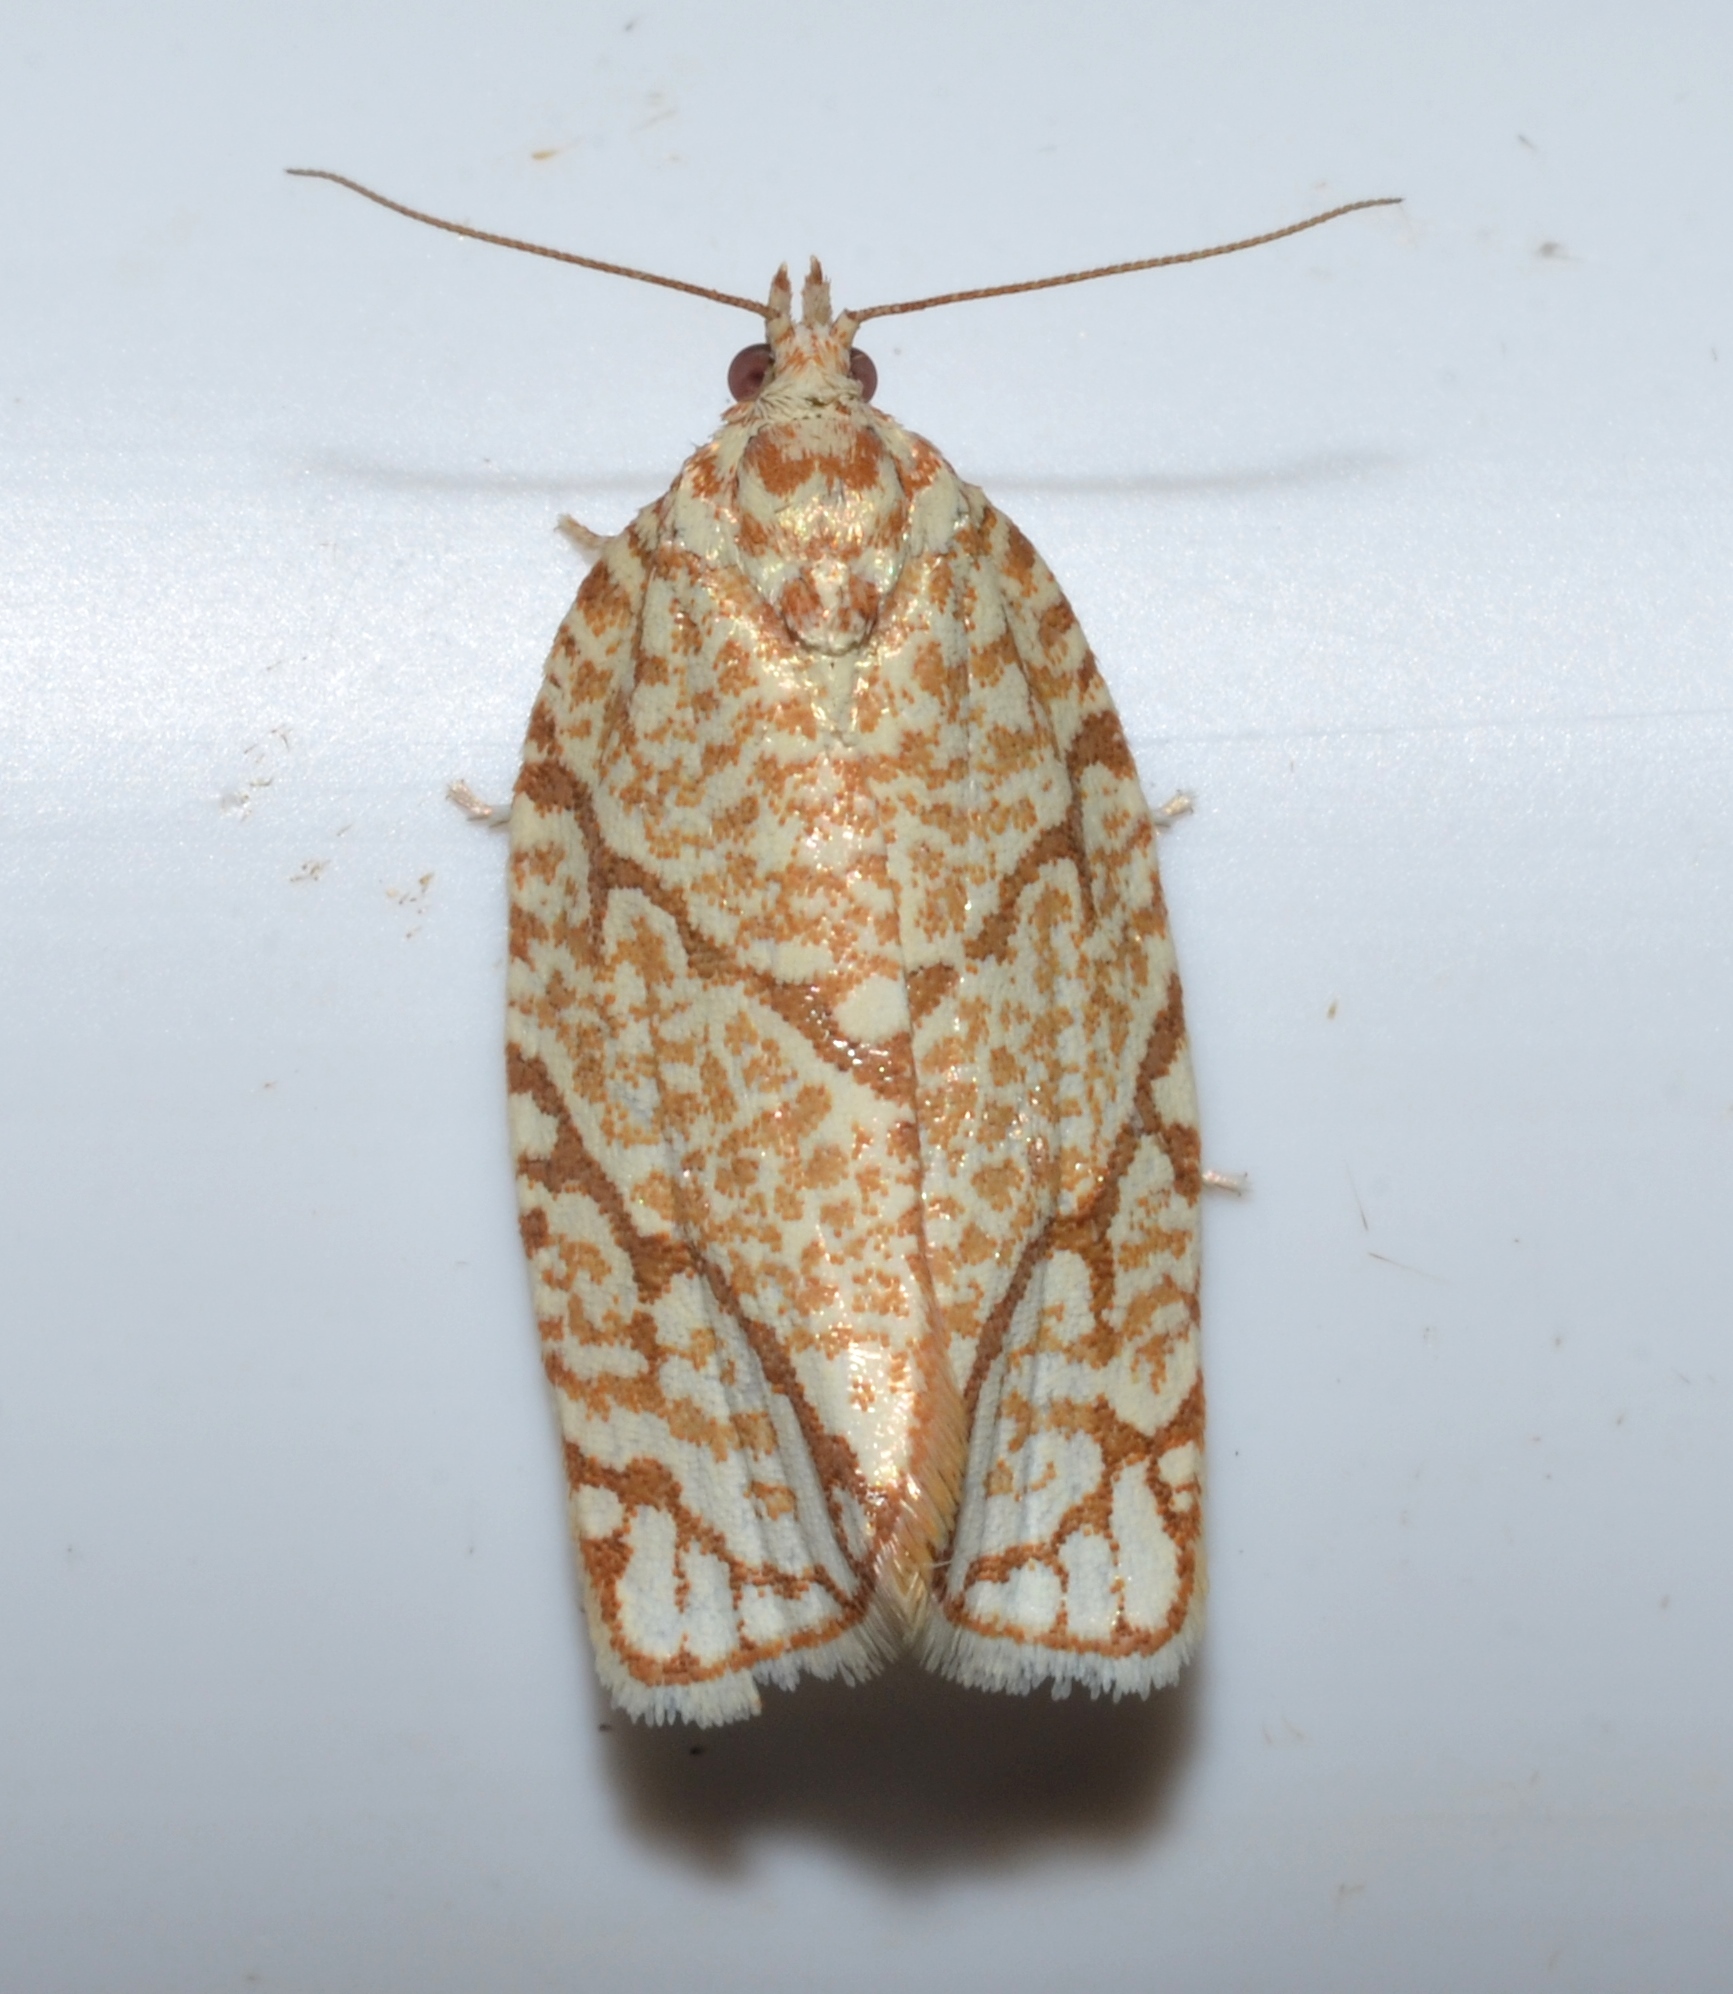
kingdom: Animalia
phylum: Arthropoda
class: Insecta
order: Lepidoptera
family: Tortricidae
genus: Argyrotaenia
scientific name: Argyrotaenia quercifoliana
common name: Yellow-winged oak leafroller moth
